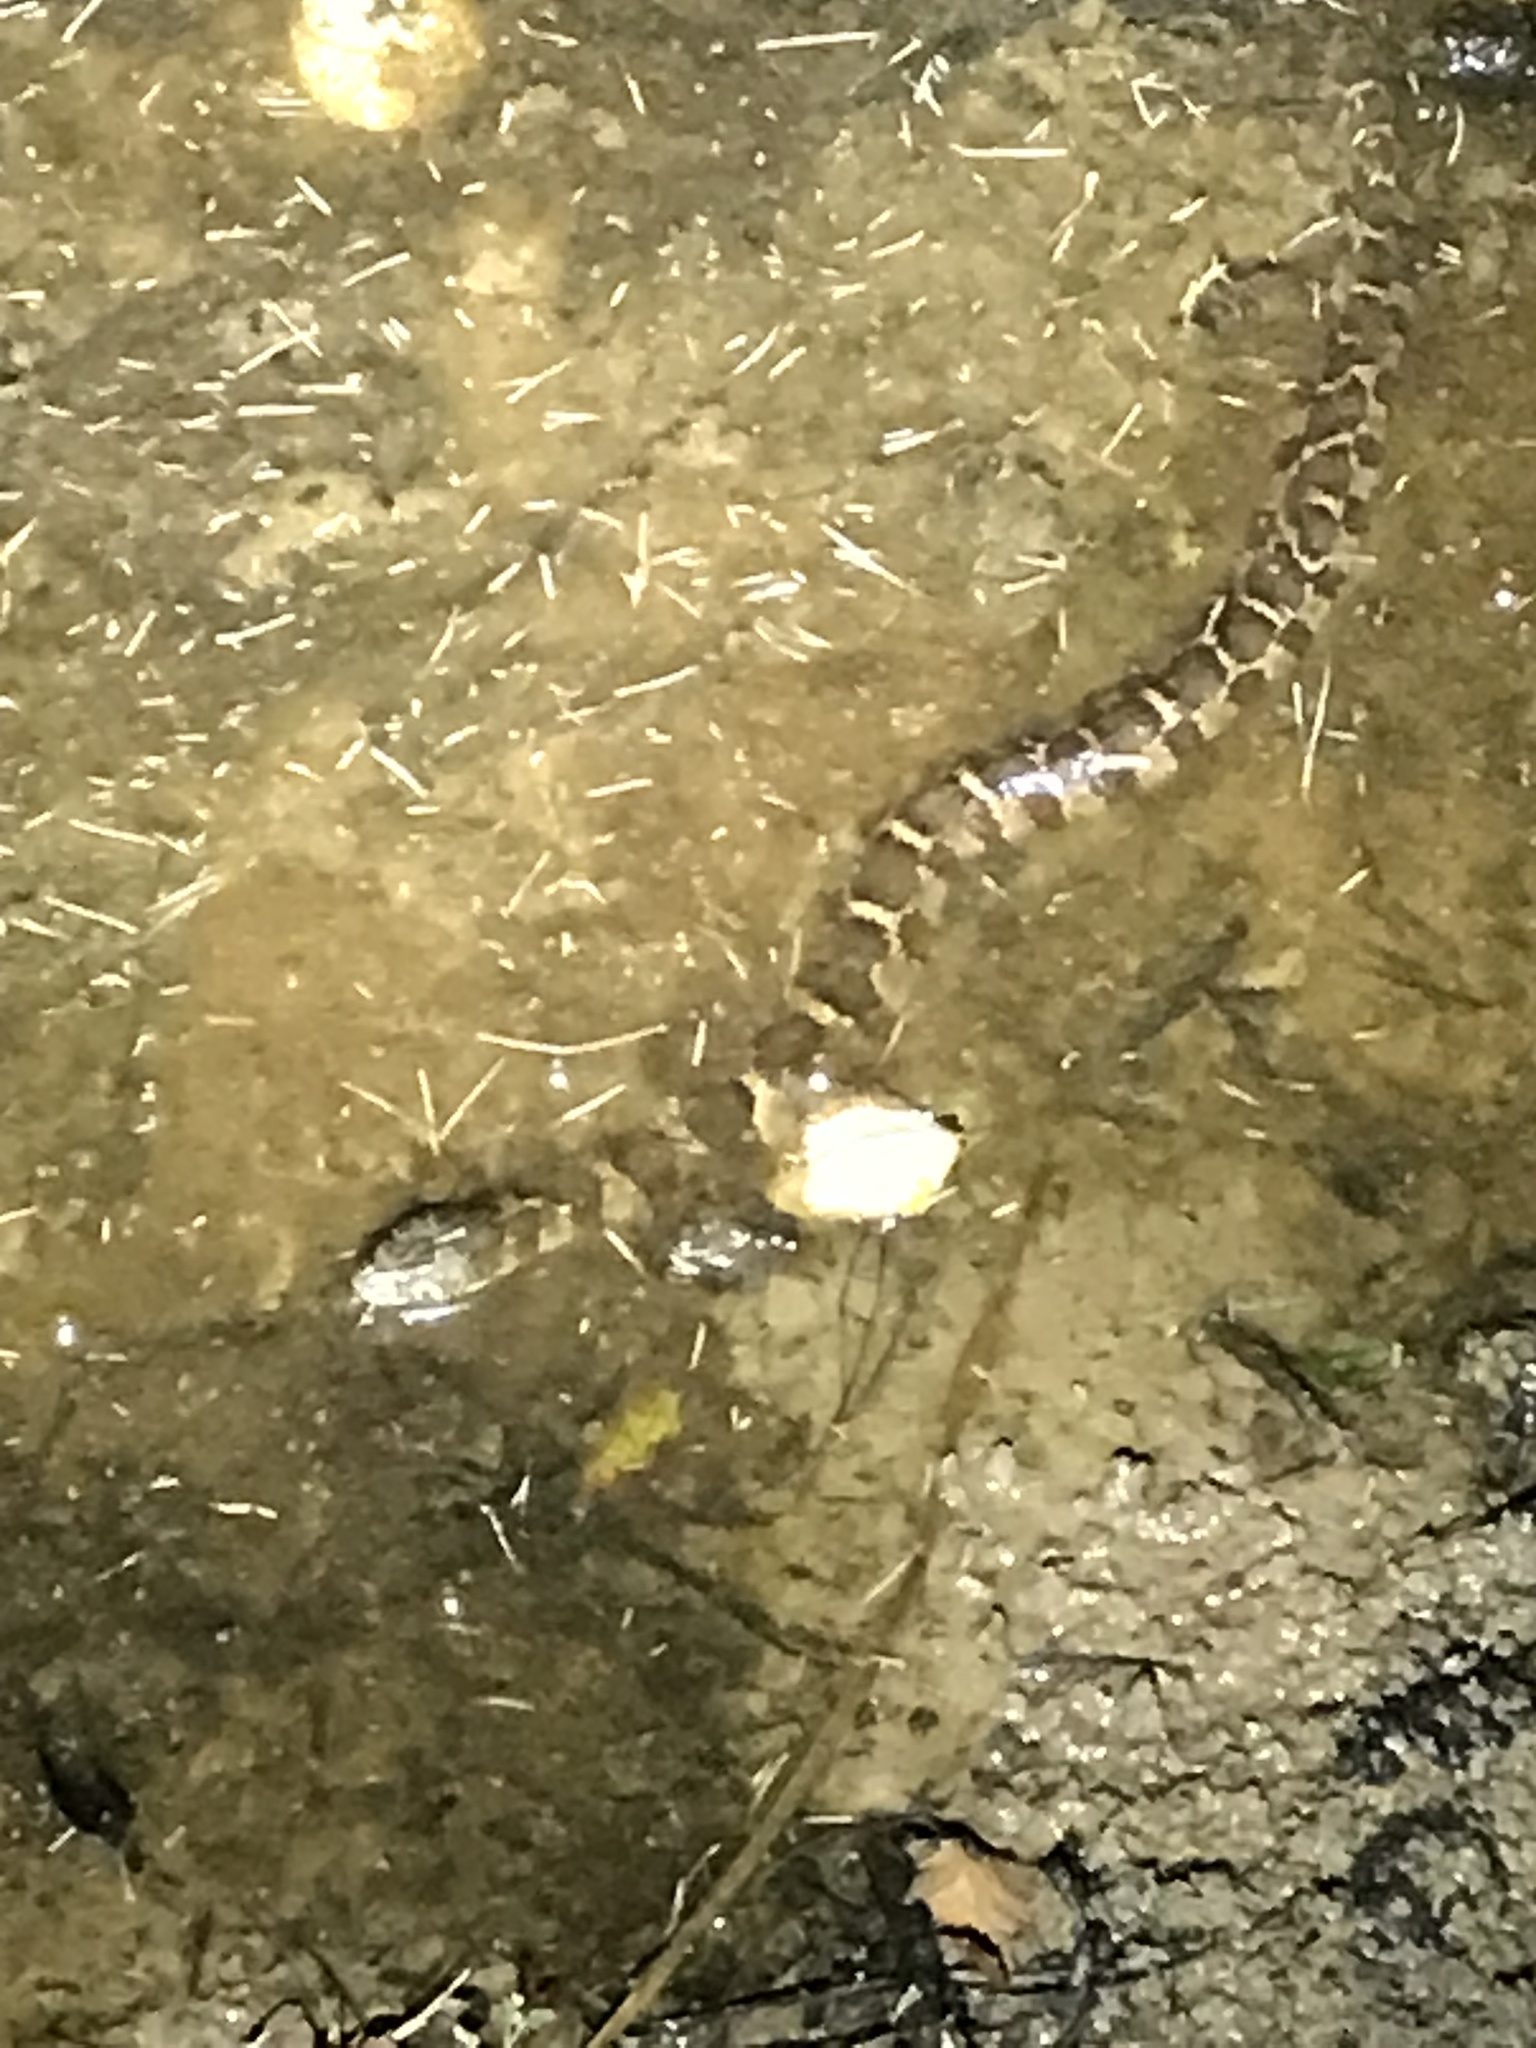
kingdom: Animalia
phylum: Chordata
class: Squamata
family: Colubridae
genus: Nerodia
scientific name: Nerodia sipedon
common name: Northern water snake
